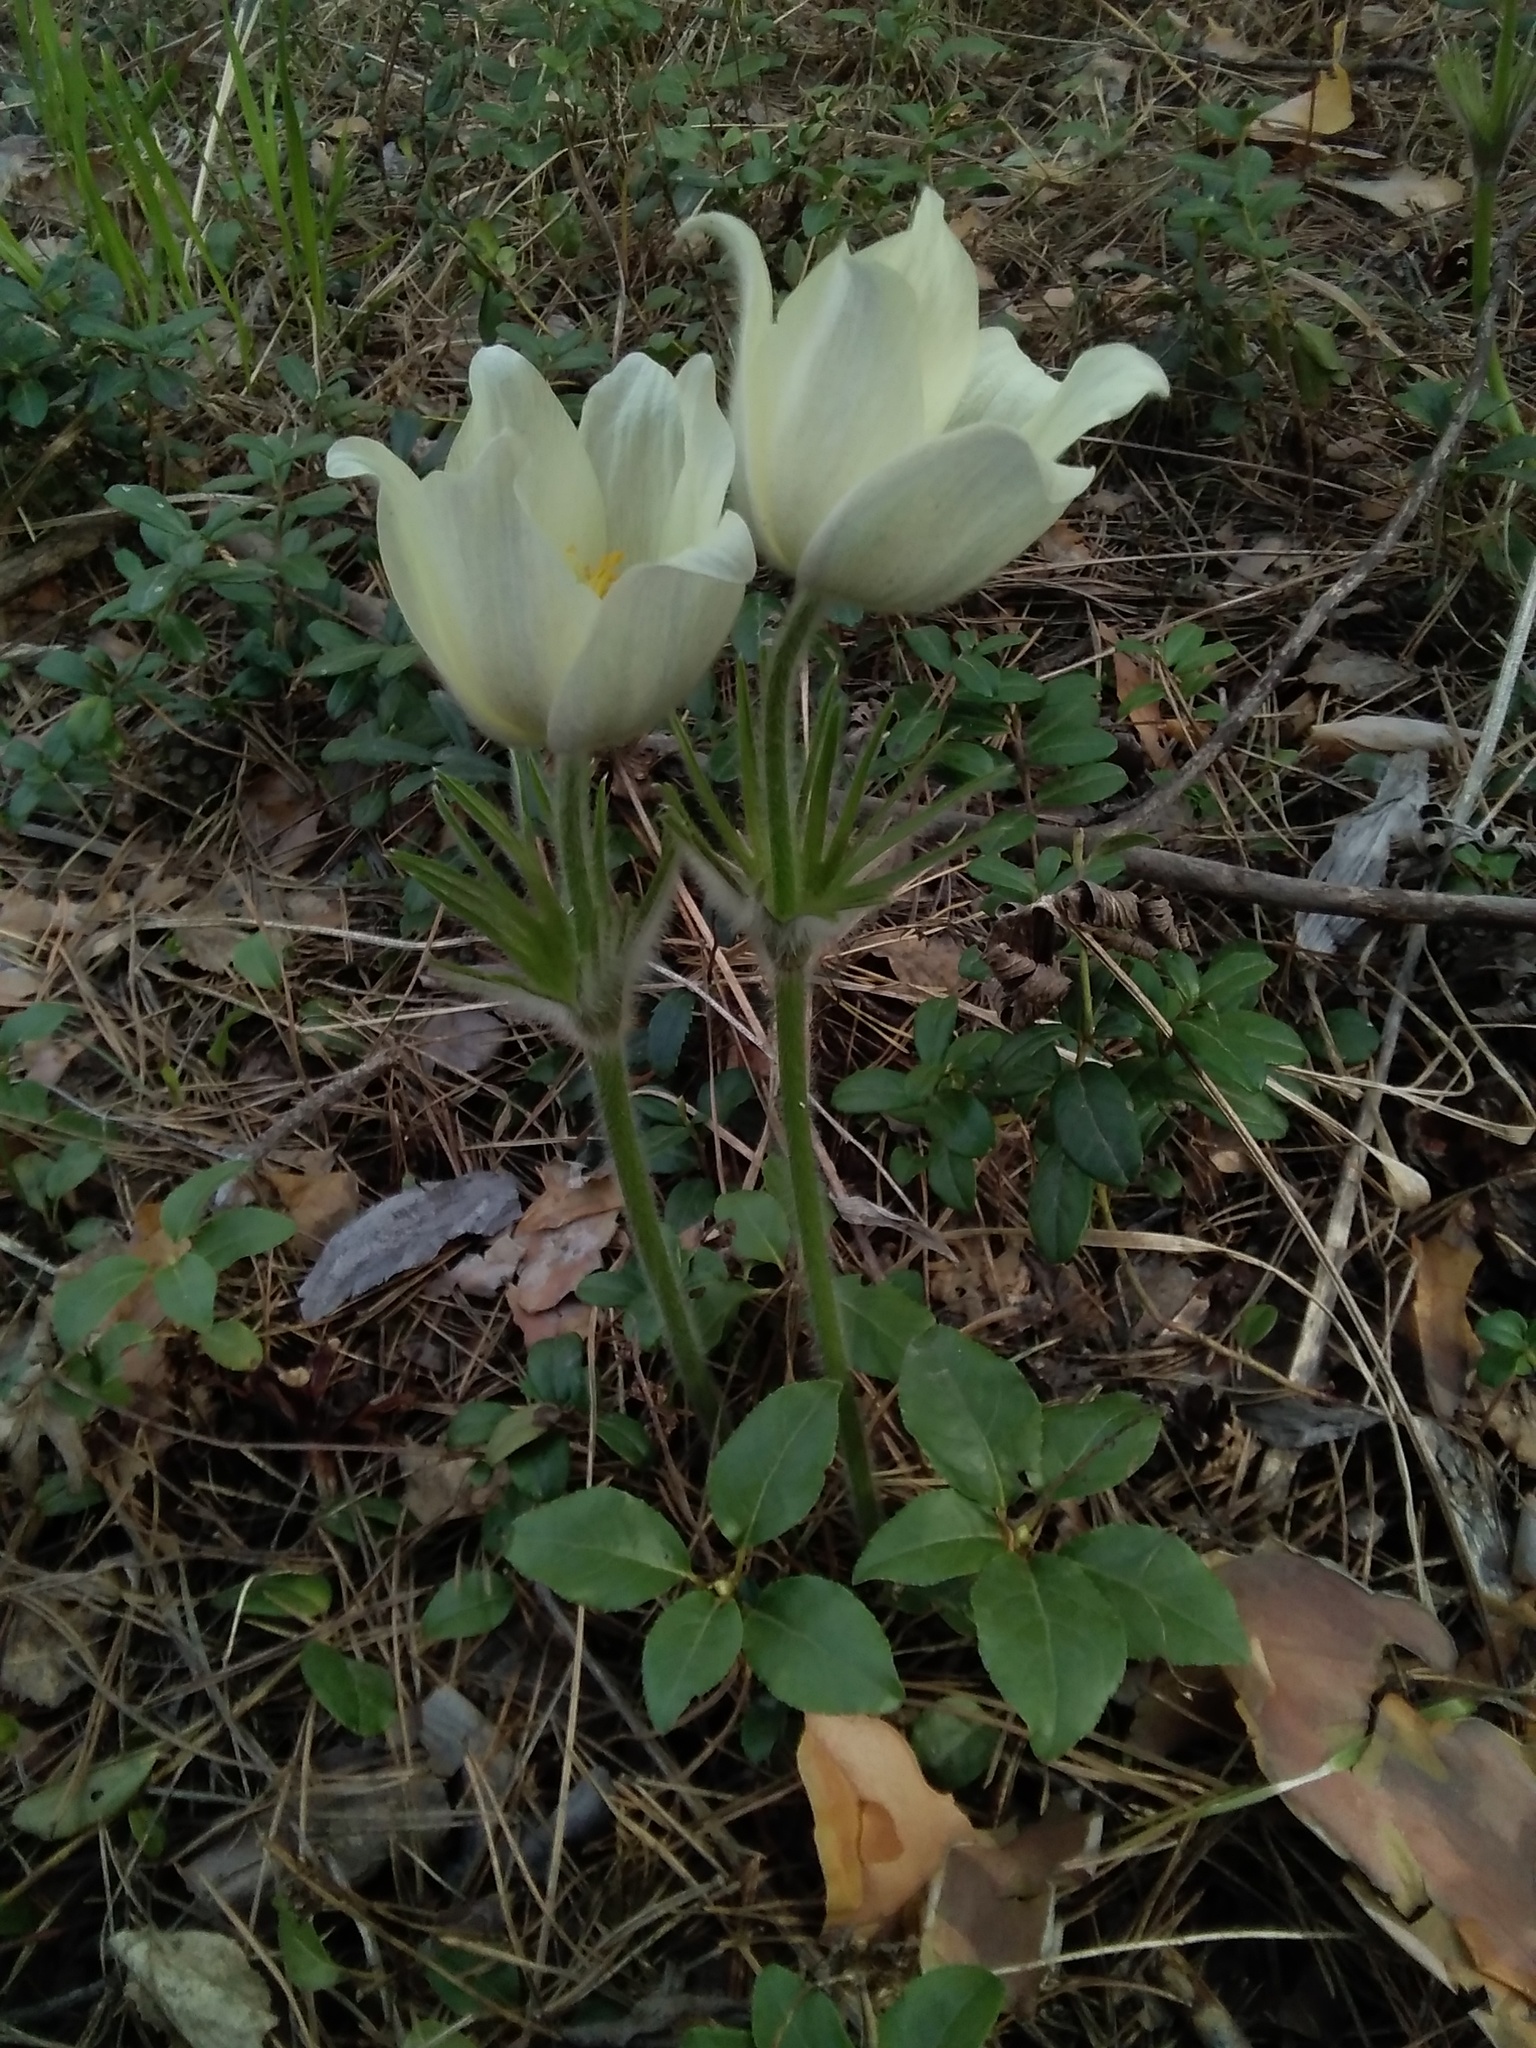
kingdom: Plantae
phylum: Tracheophyta
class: Magnoliopsida
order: Ranunculales
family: Ranunculaceae
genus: Pulsatilla
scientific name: Pulsatilla patens
